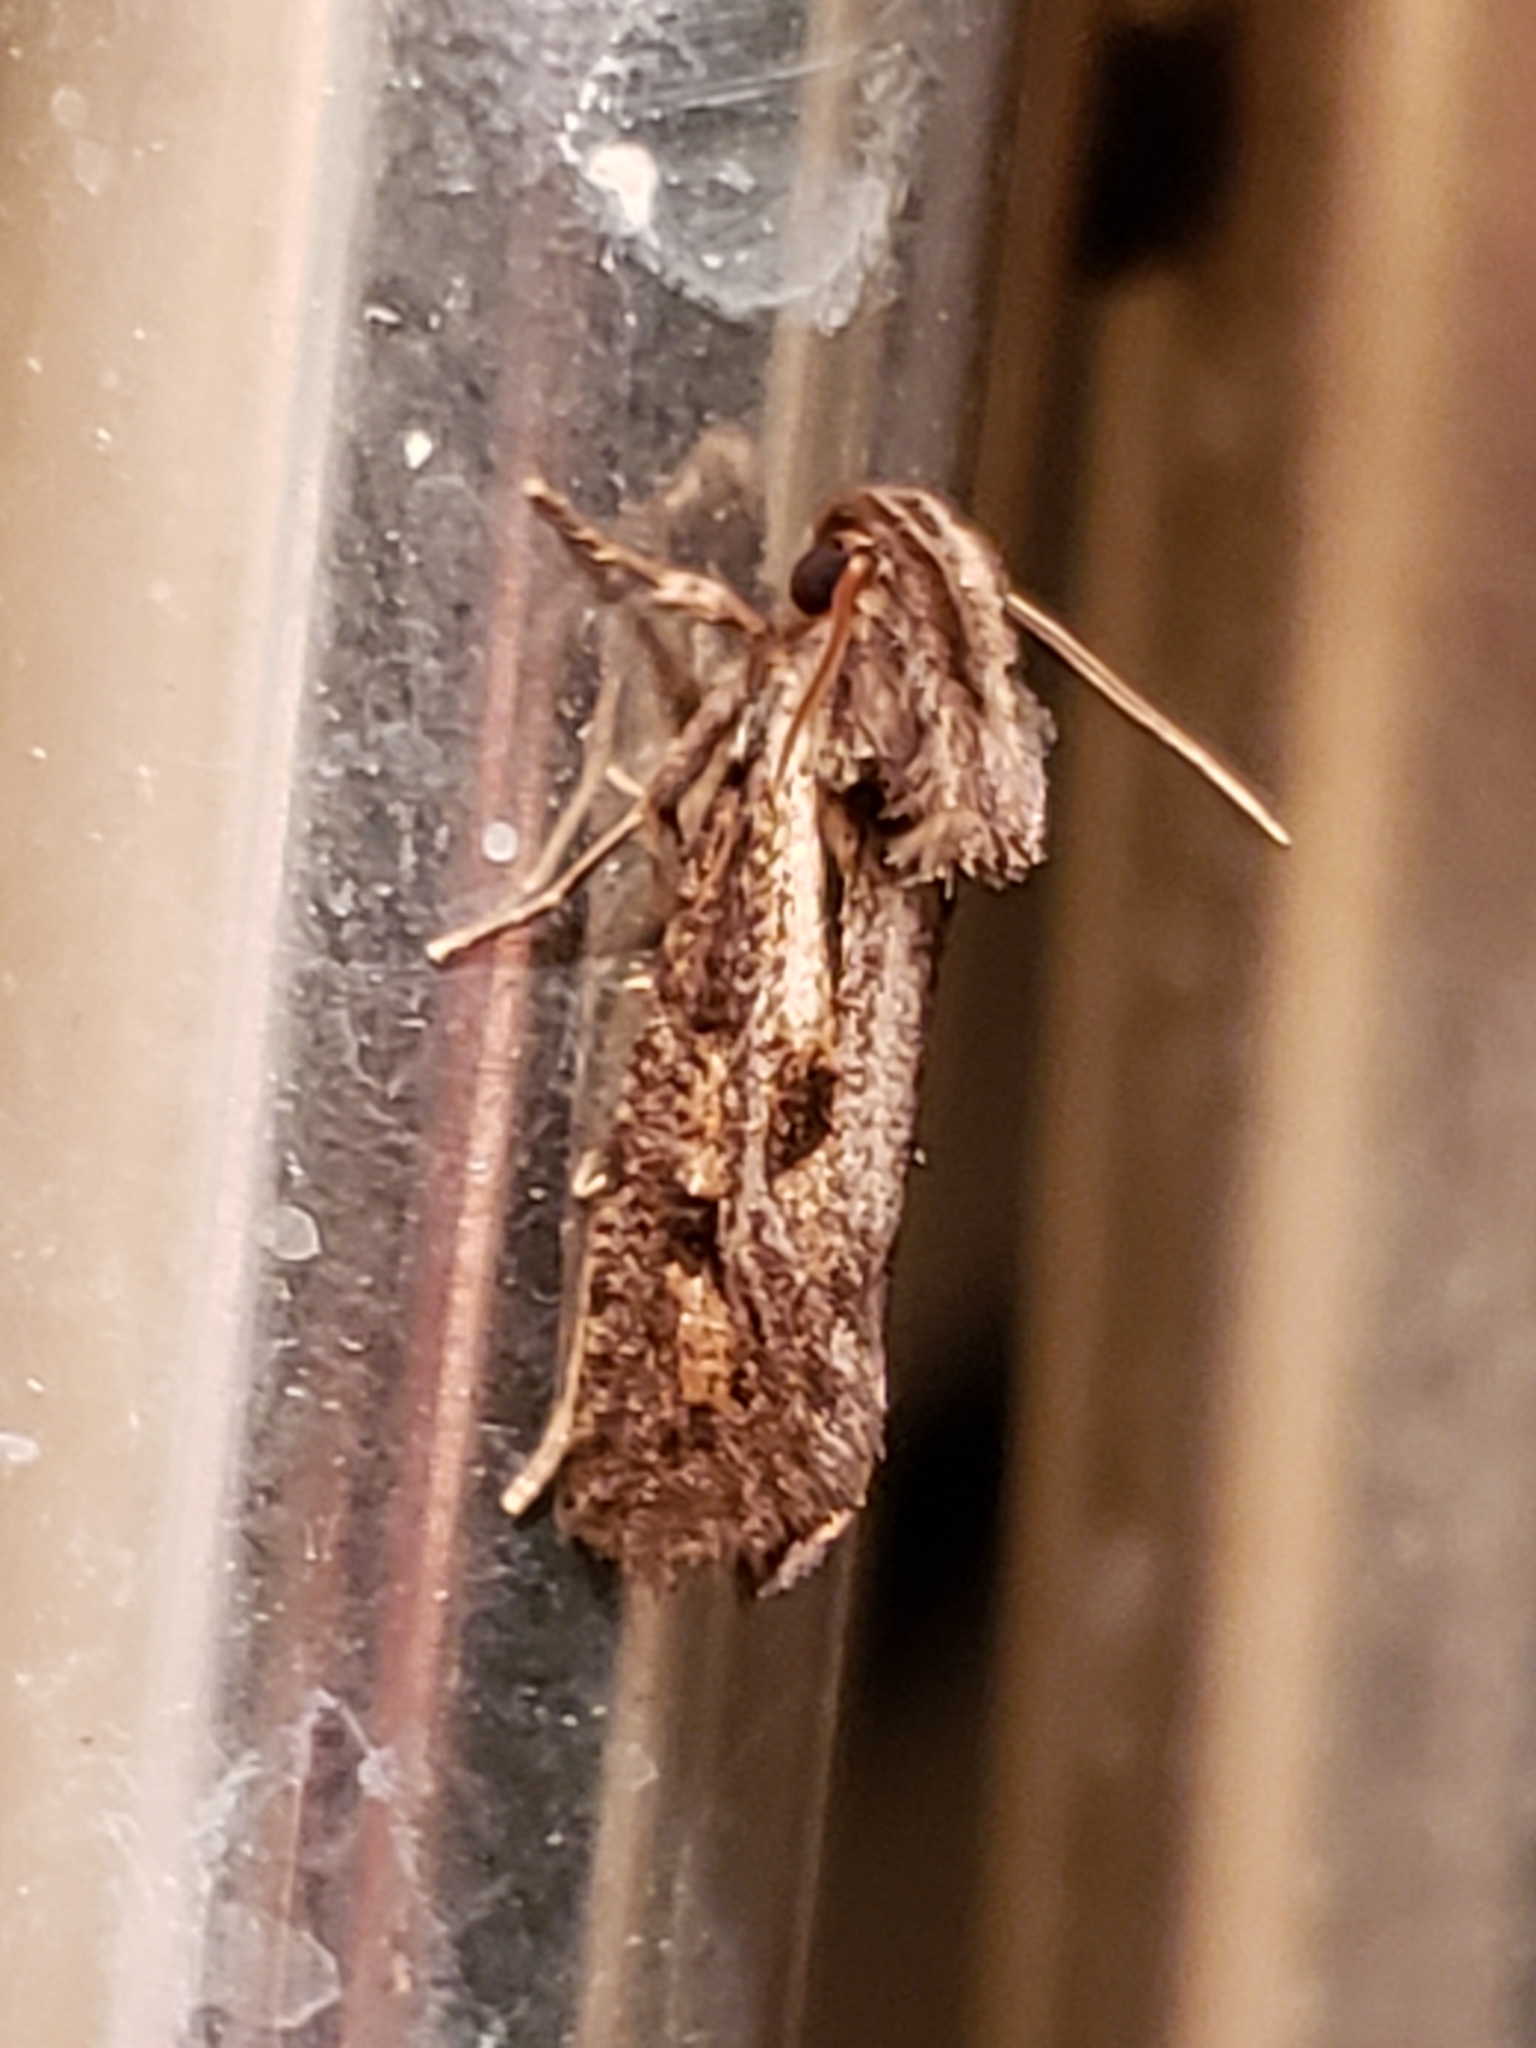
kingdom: Animalia
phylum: Arthropoda
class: Insecta
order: Lepidoptera
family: Tineidae
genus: Acrolophus
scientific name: Acrolophus popeanella
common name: Clemens' grass tubeworm moth
